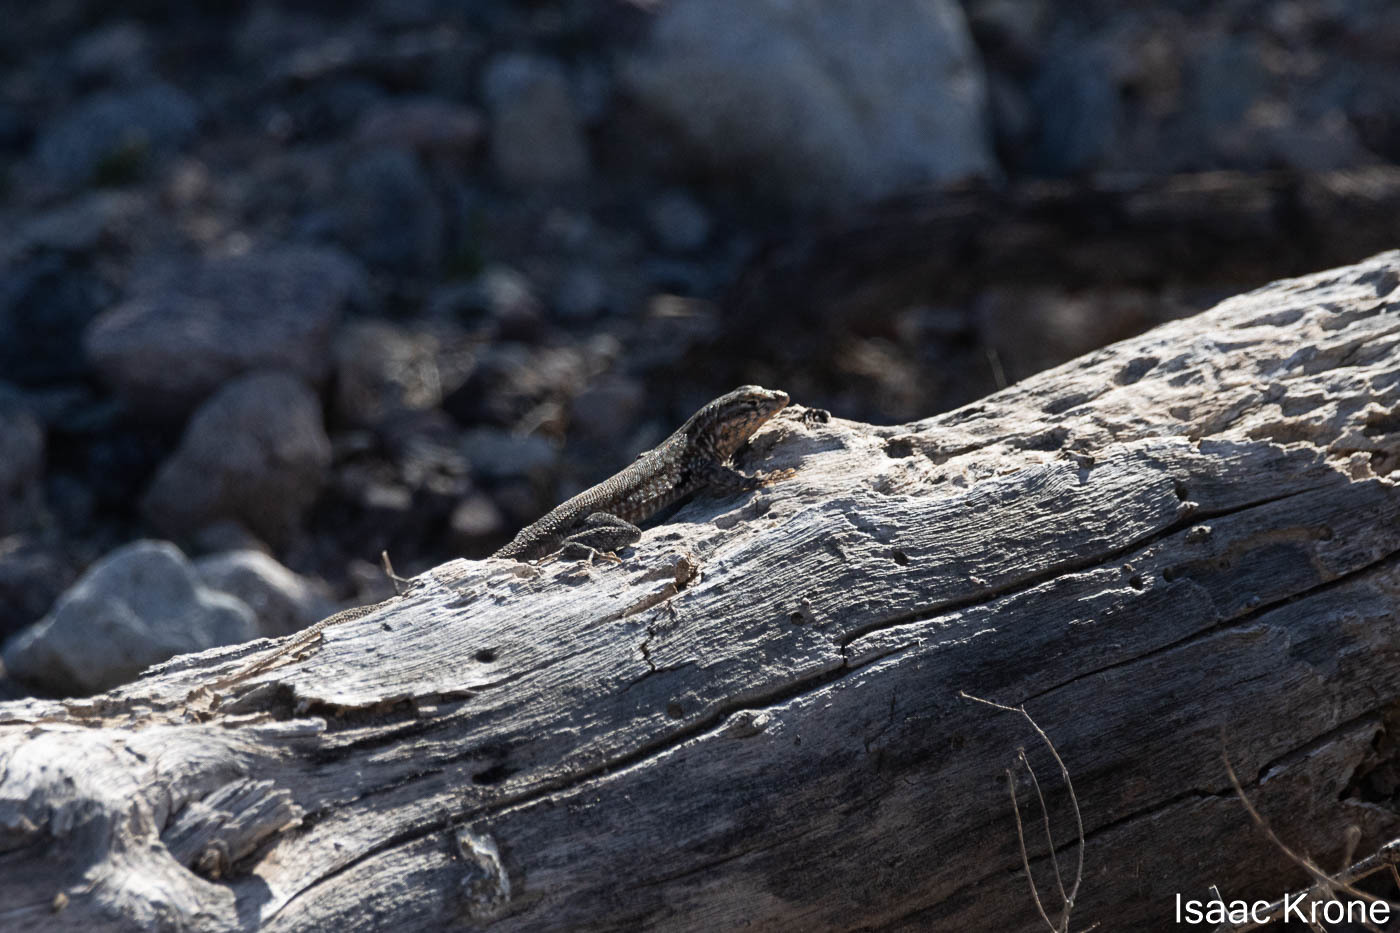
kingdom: Animalia
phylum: Chordata
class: Squamata
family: Phrynosomatidae
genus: Uta
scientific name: Uta stansburiana
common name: Side-blotched lizard
